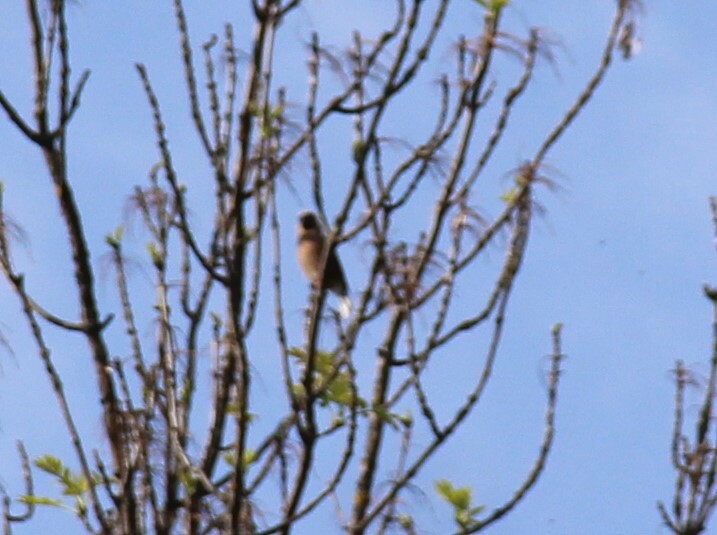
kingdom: Animalia
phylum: Chordata
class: Aves
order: Passeriformes
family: Fringillidae
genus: Coccothraustes
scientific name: Coccothraustes coccothraustes
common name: Hawfinch
